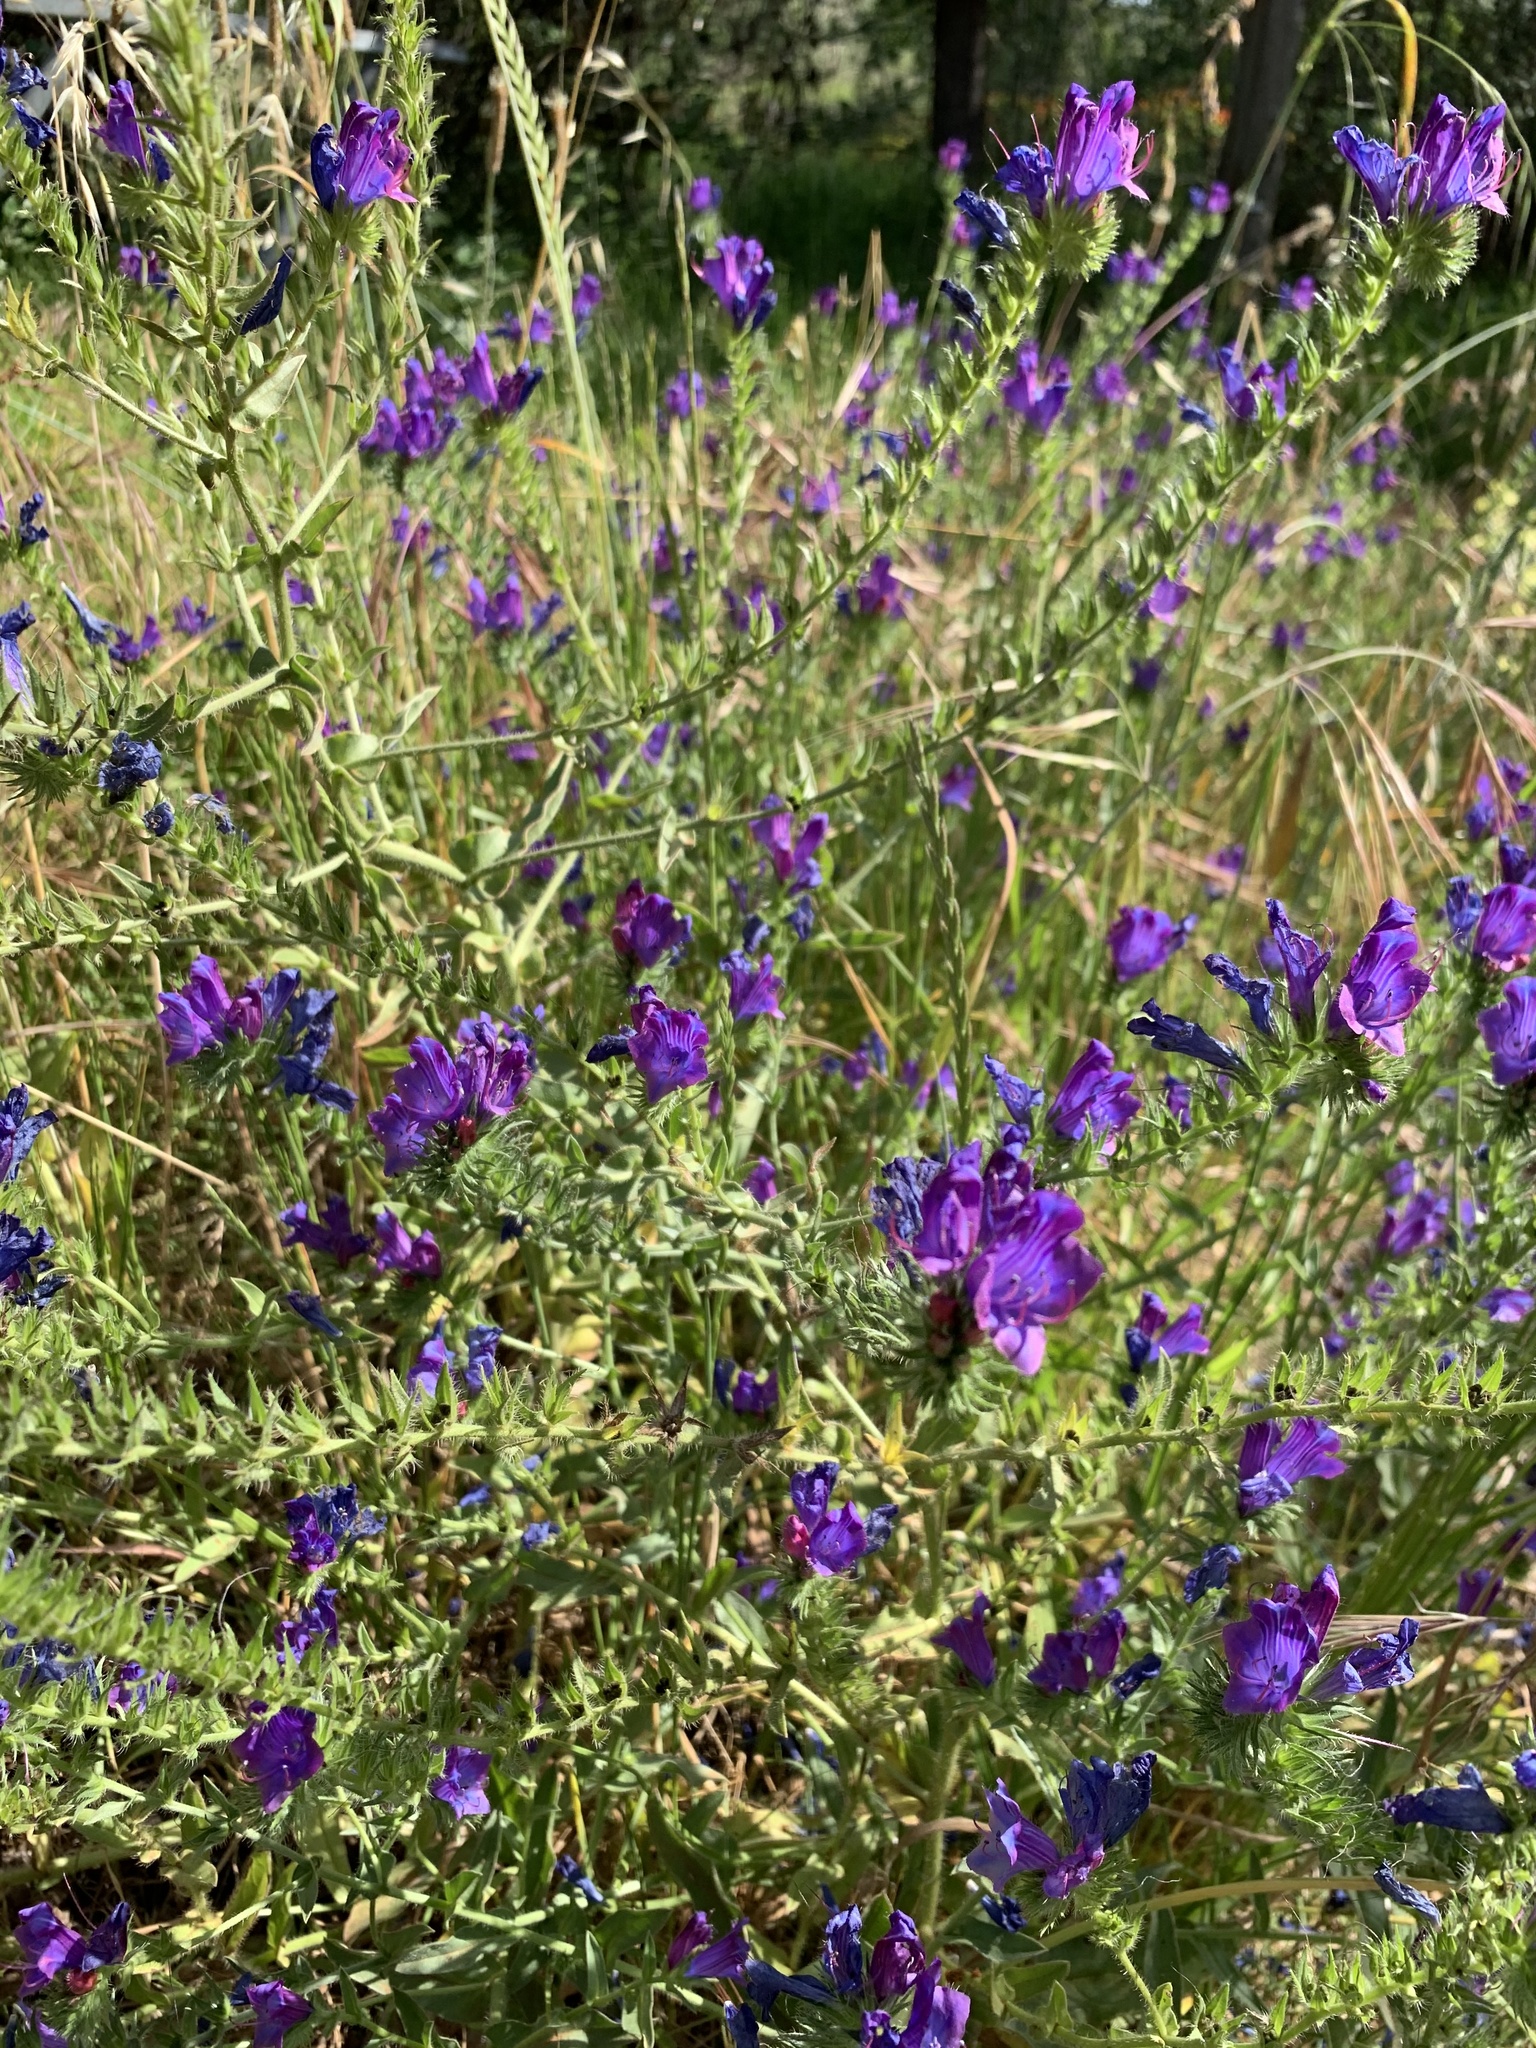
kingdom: Plantae
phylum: Tracheophyta
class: Magnoliopsida
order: Boraginales
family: Boraginaceae
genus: Echium
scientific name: Echium plantagineum
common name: Purple viper's-bugloss
